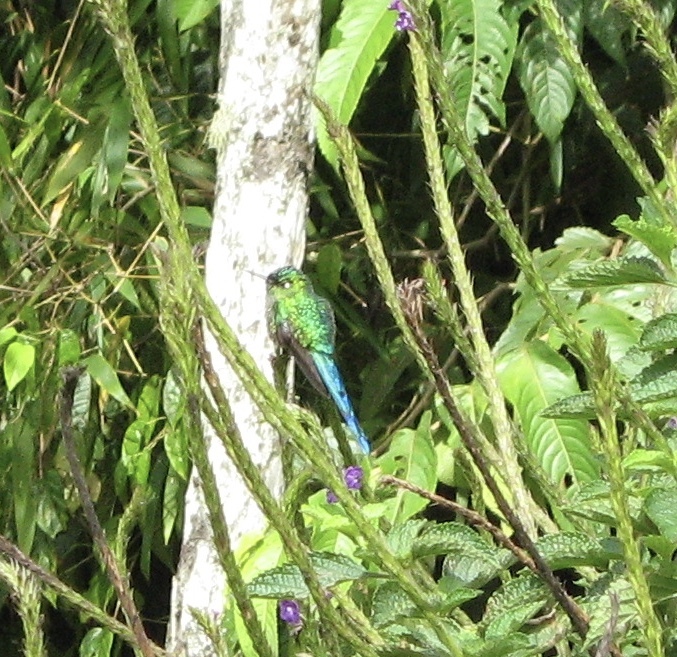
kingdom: Animalia
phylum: Chordata
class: Aves
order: Apodiformes
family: Trochilidae
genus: Aglaiocercus
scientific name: Aglaiocercus kingii
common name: Long-tailed sylph
